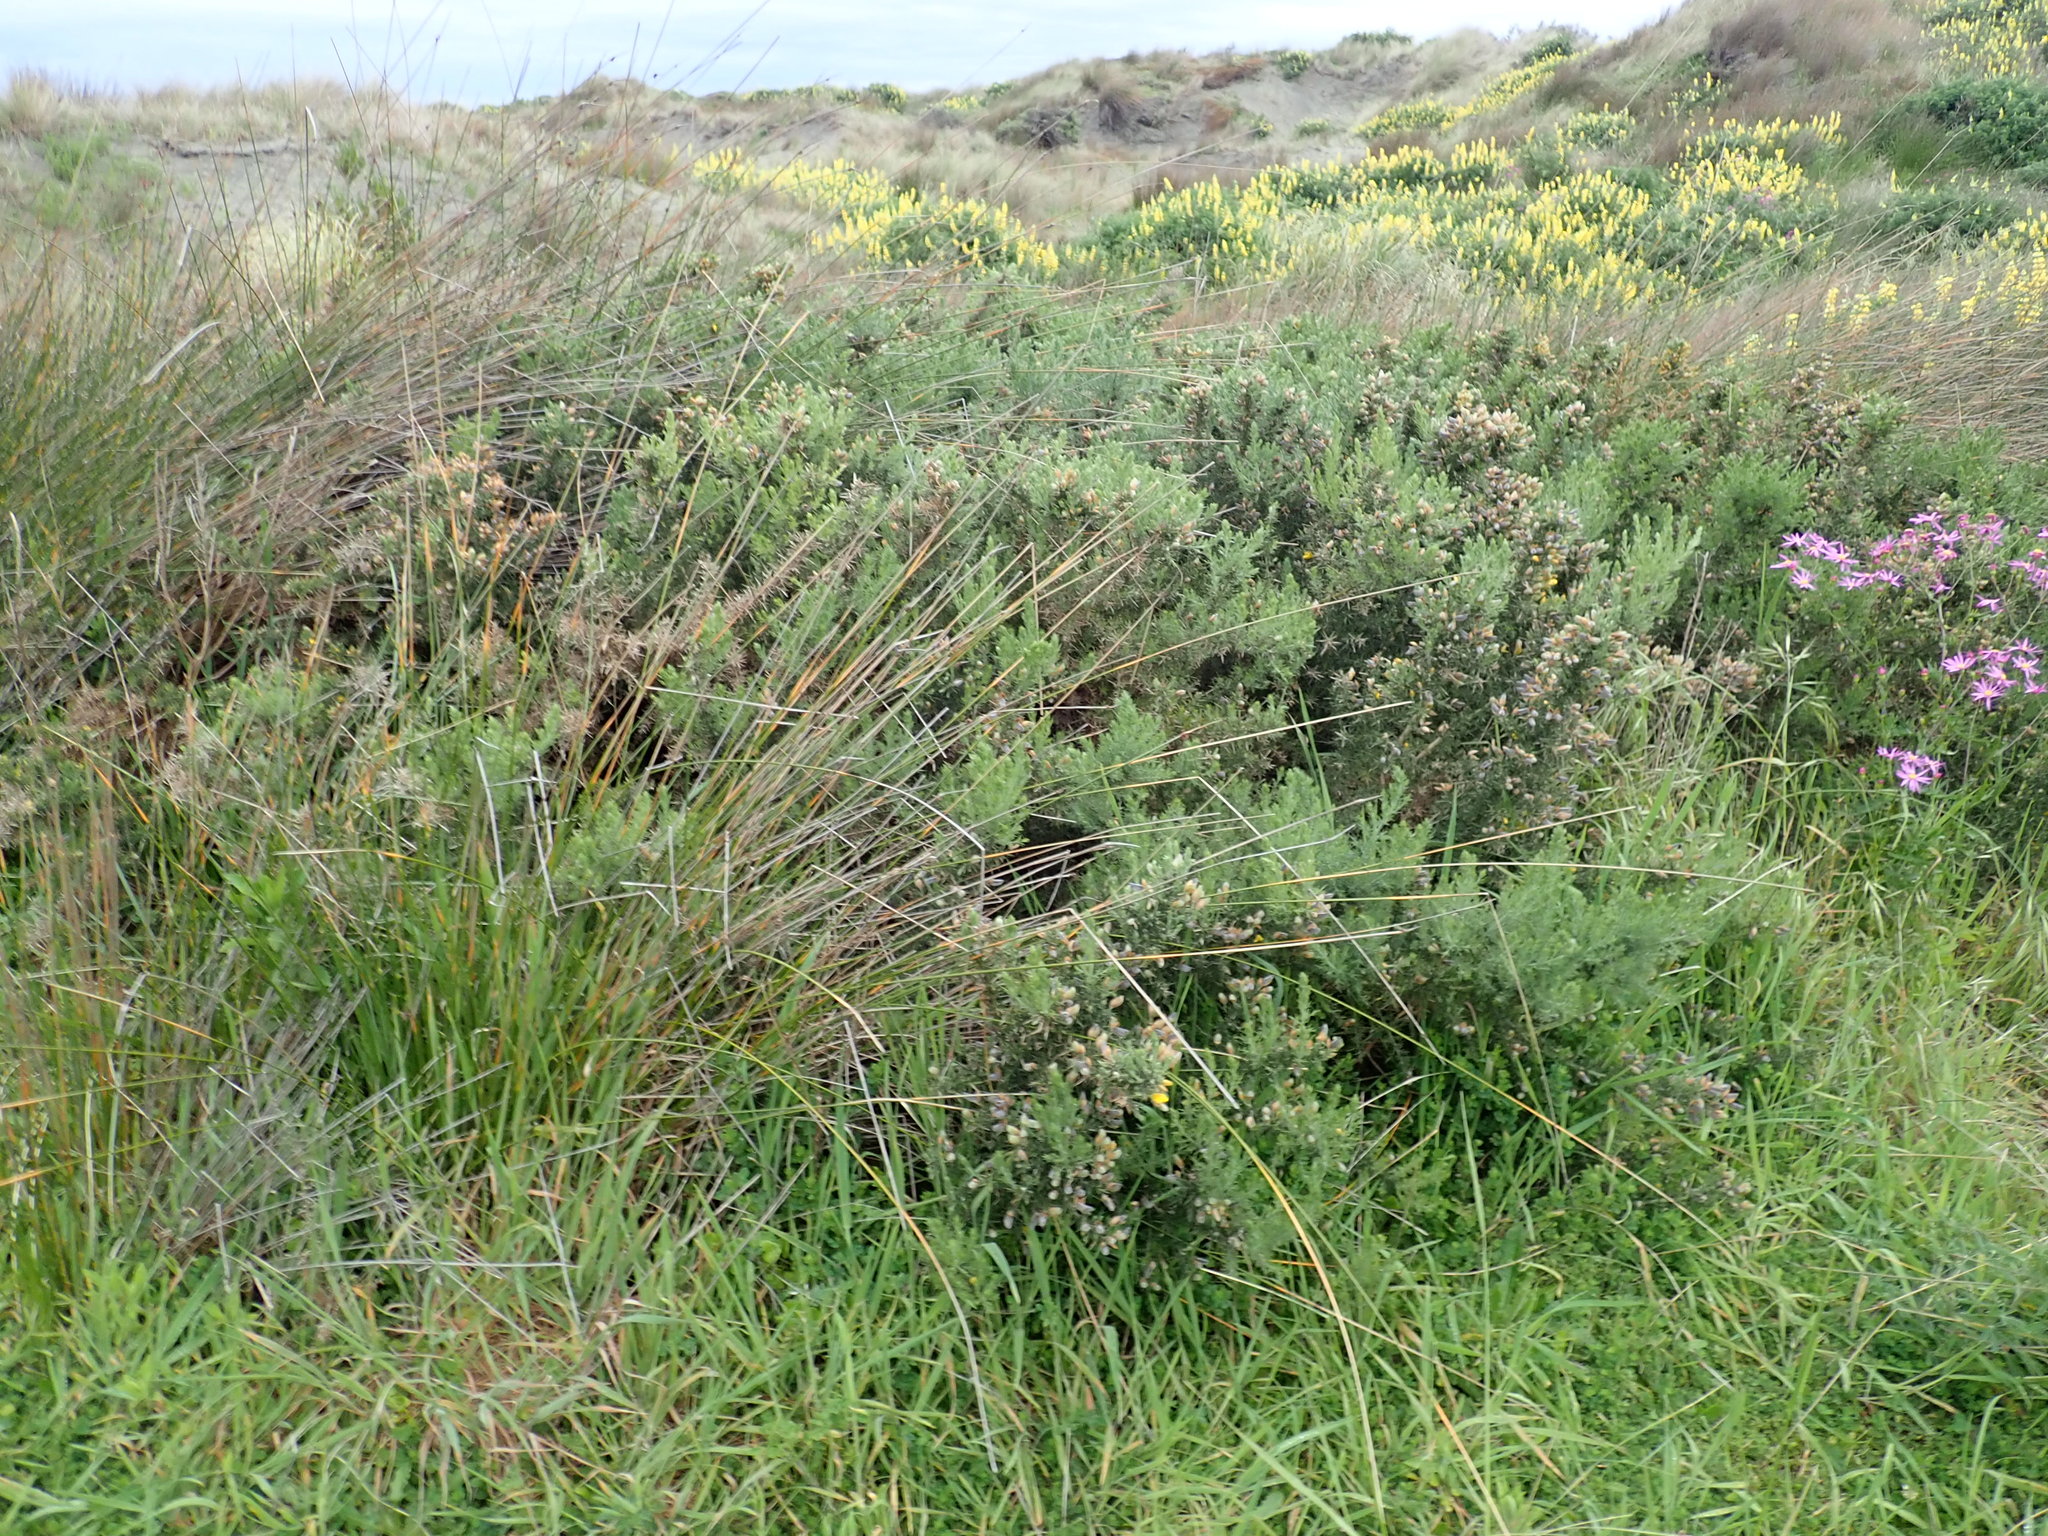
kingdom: Plantae
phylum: Tracheophyta
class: Magnoliopsida
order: Fabales
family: Fabaceae
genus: Ulex
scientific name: Ulex europaeus
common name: Common gorse
